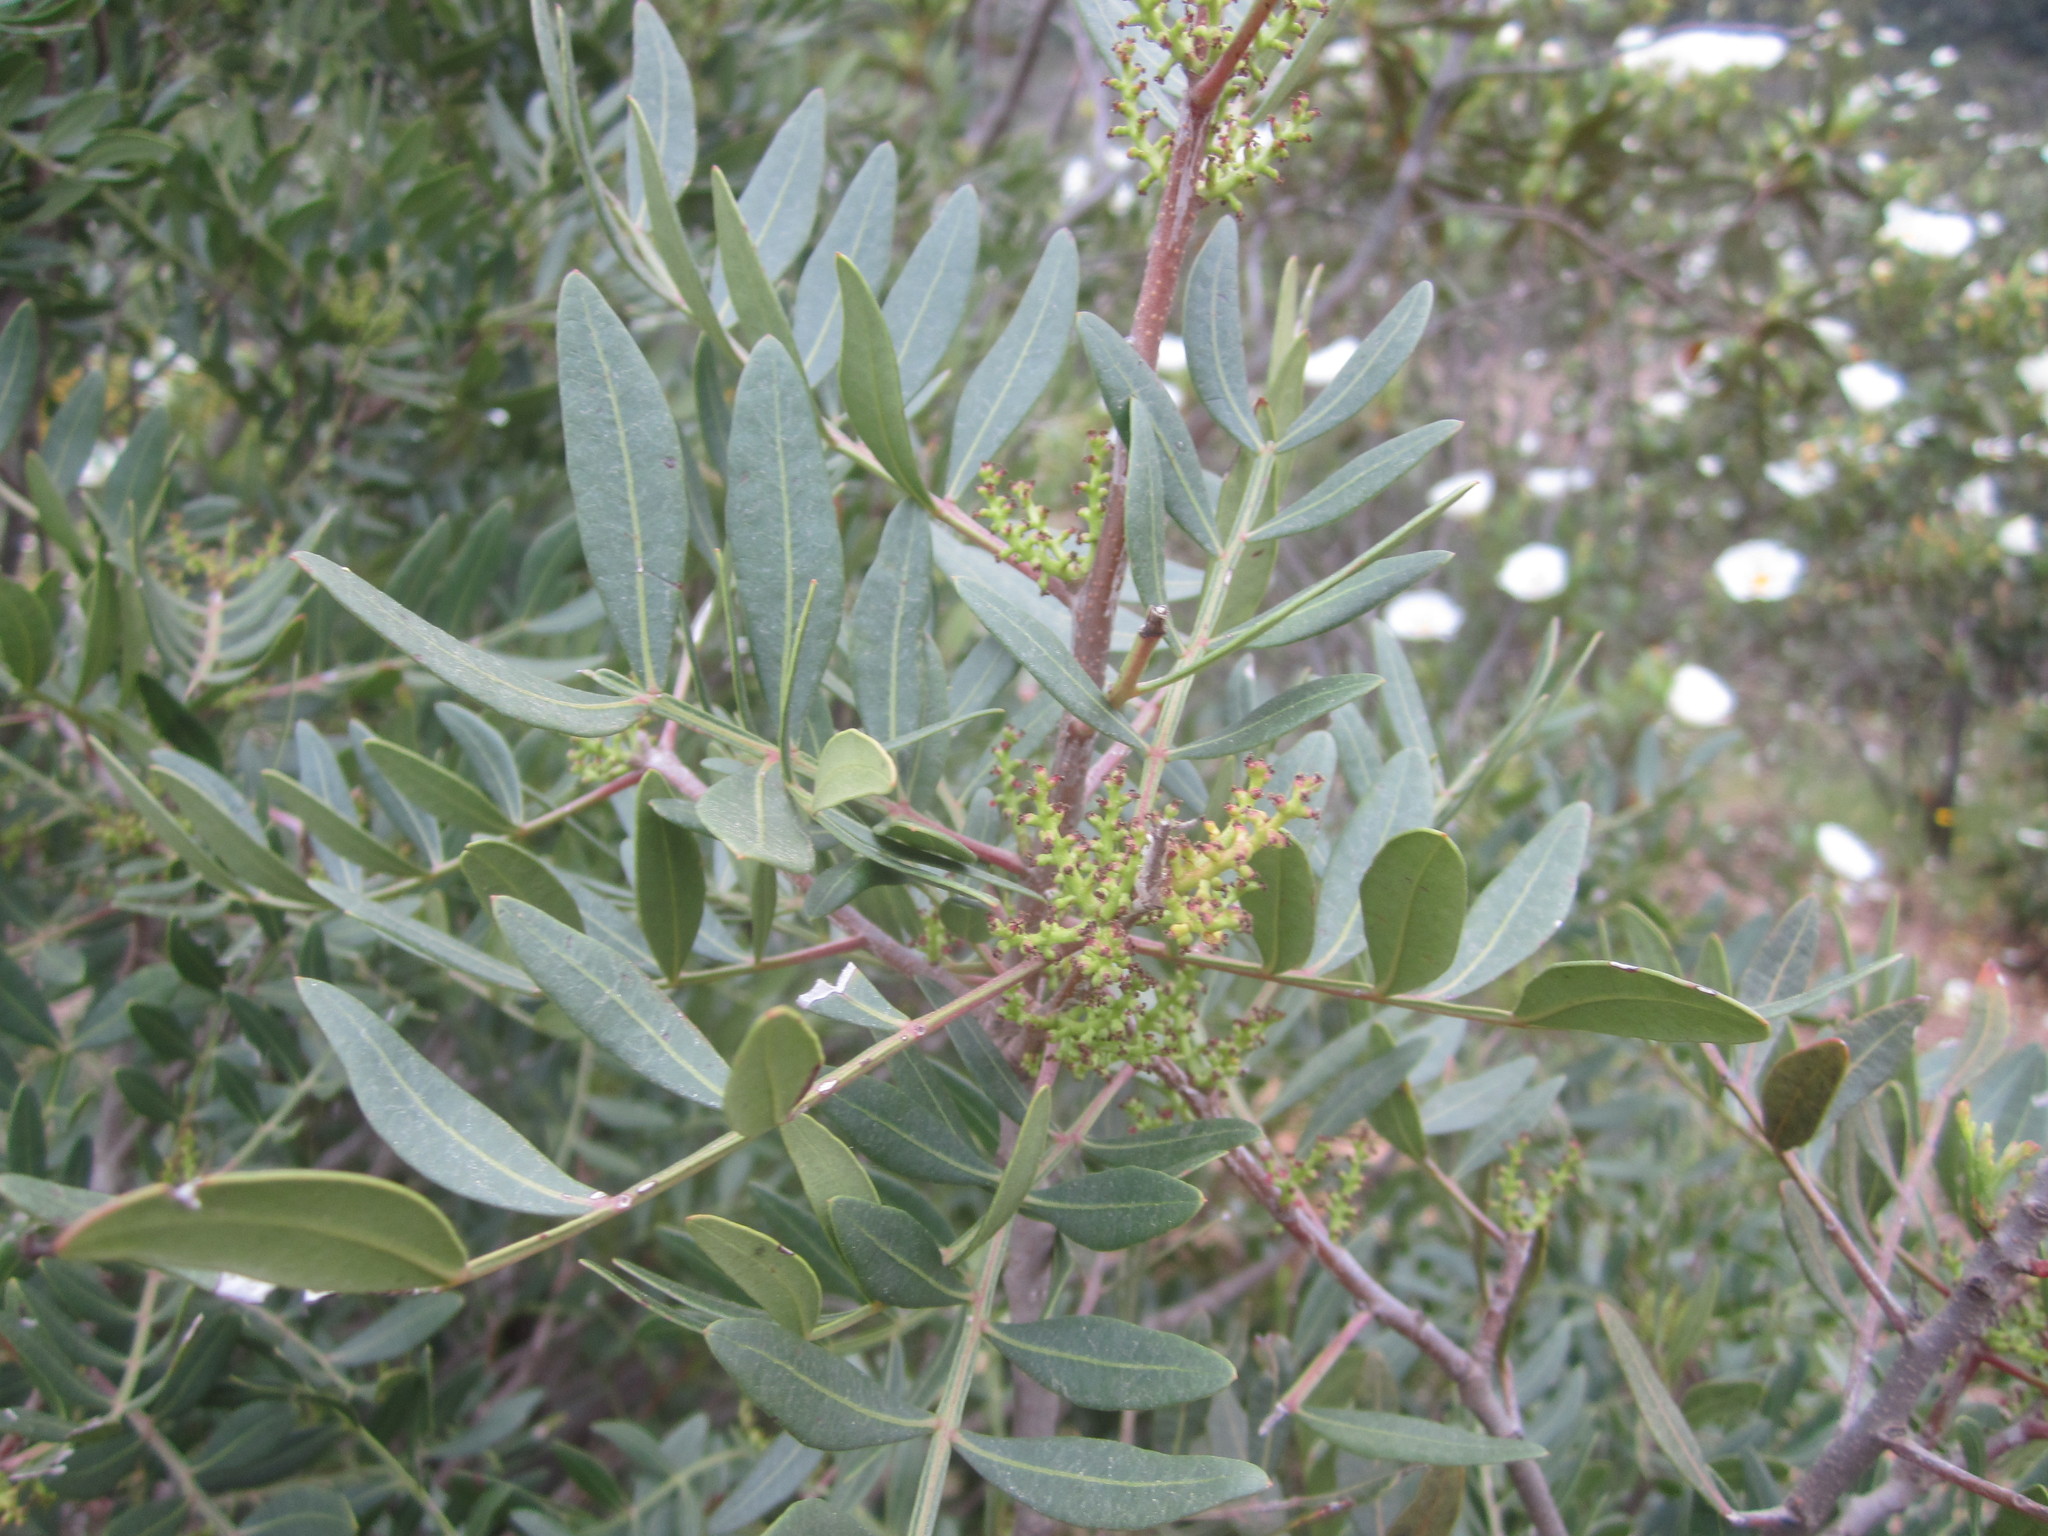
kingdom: Plantae
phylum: Tracheophyta
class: Magnoliopsida
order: Sapindales
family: Anacardiaceae
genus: Pistacia
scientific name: Pistacia lentiscus
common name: Lentisk
